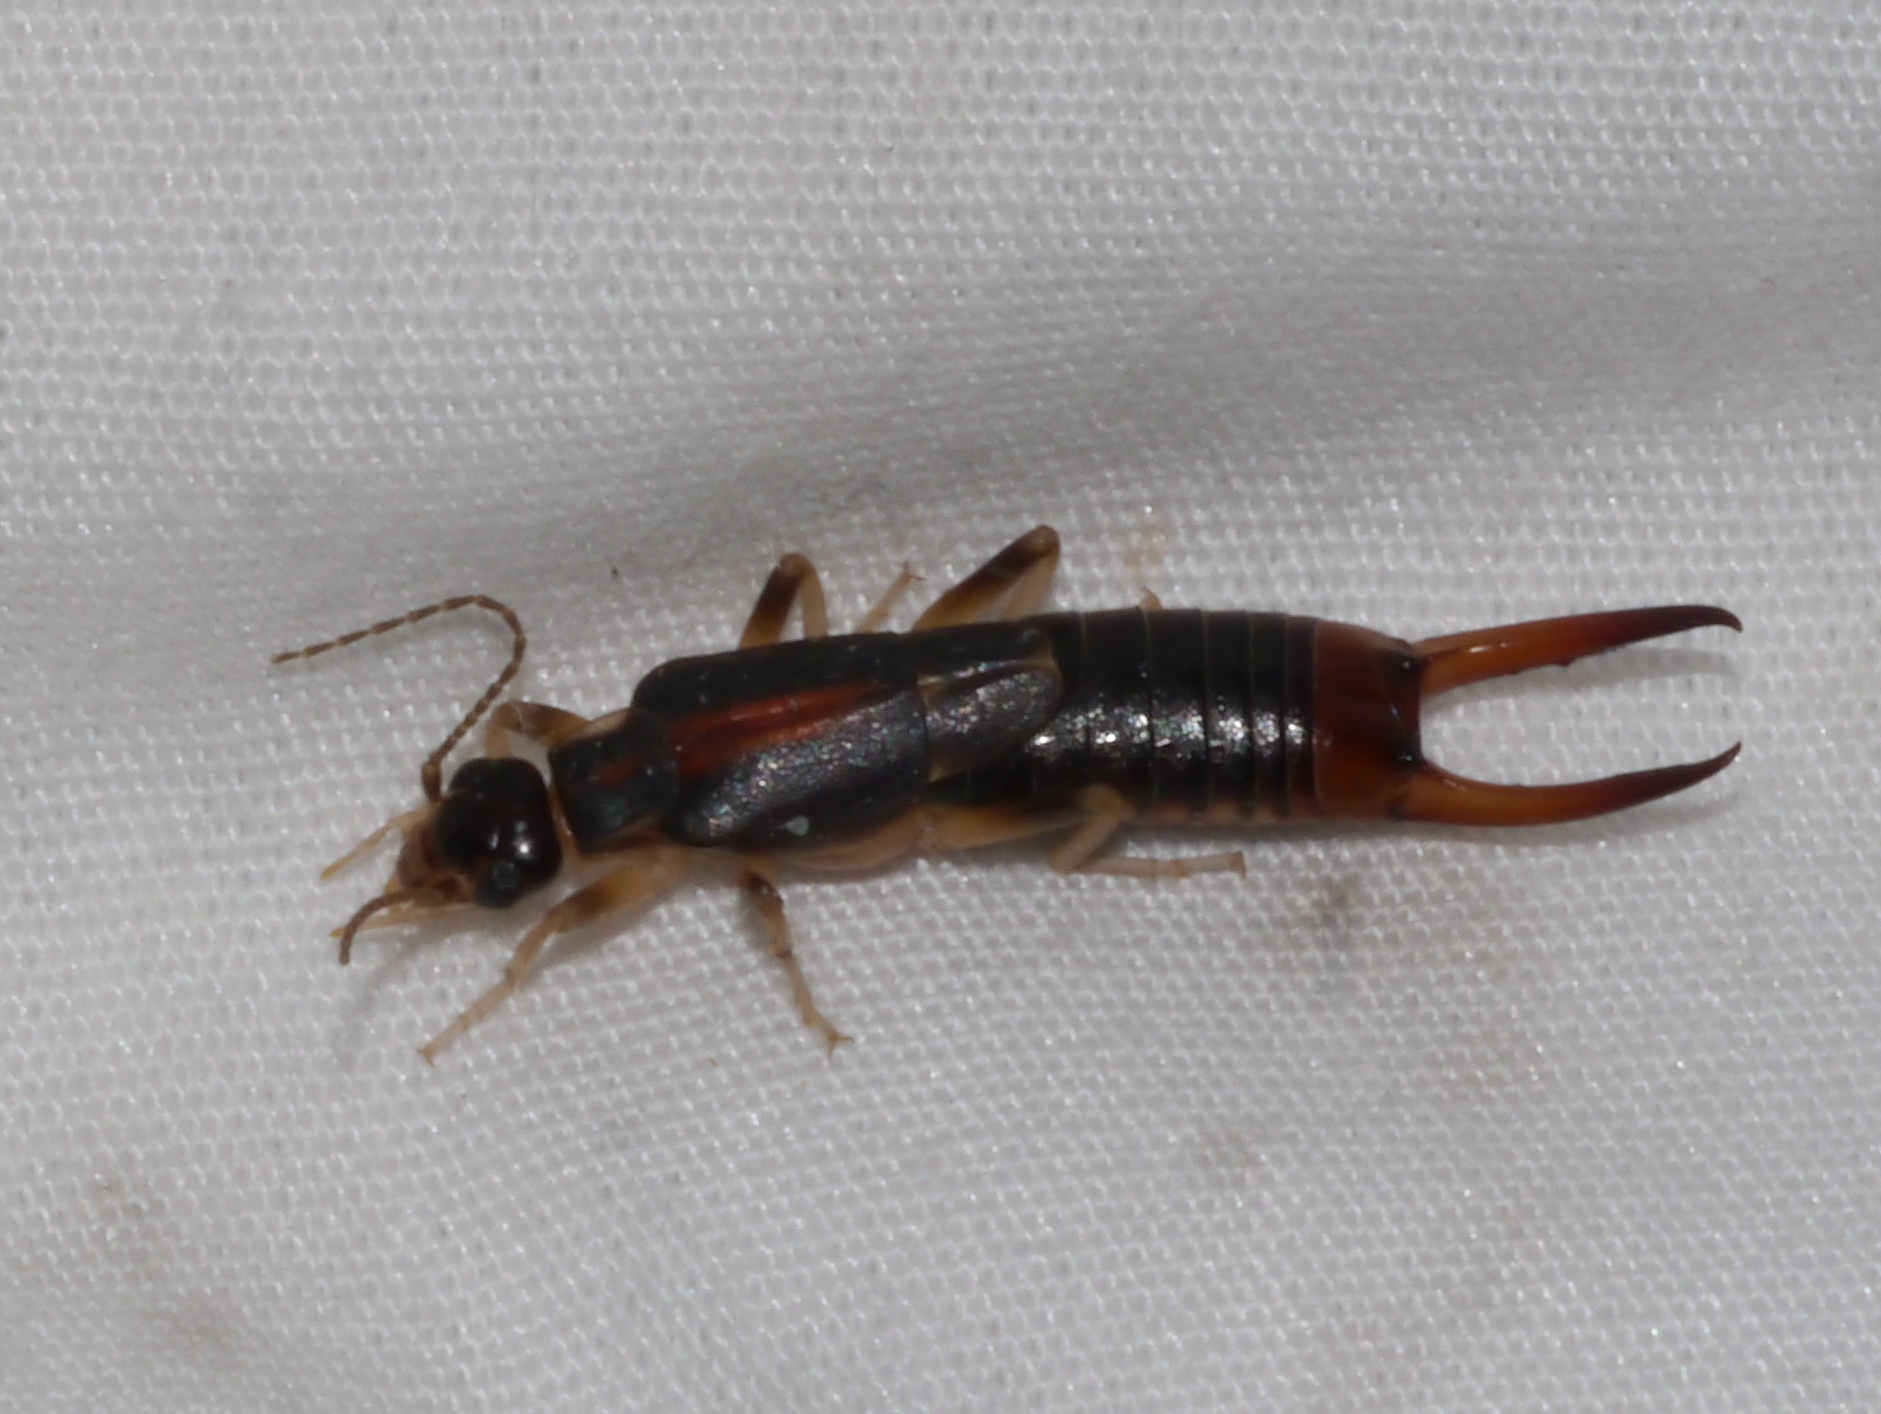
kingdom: Animalia
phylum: Arthropoda
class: Insecta
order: Dermaptera
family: Labiduridae
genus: Labidura
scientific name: Labidura riparia
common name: Striped earwig
